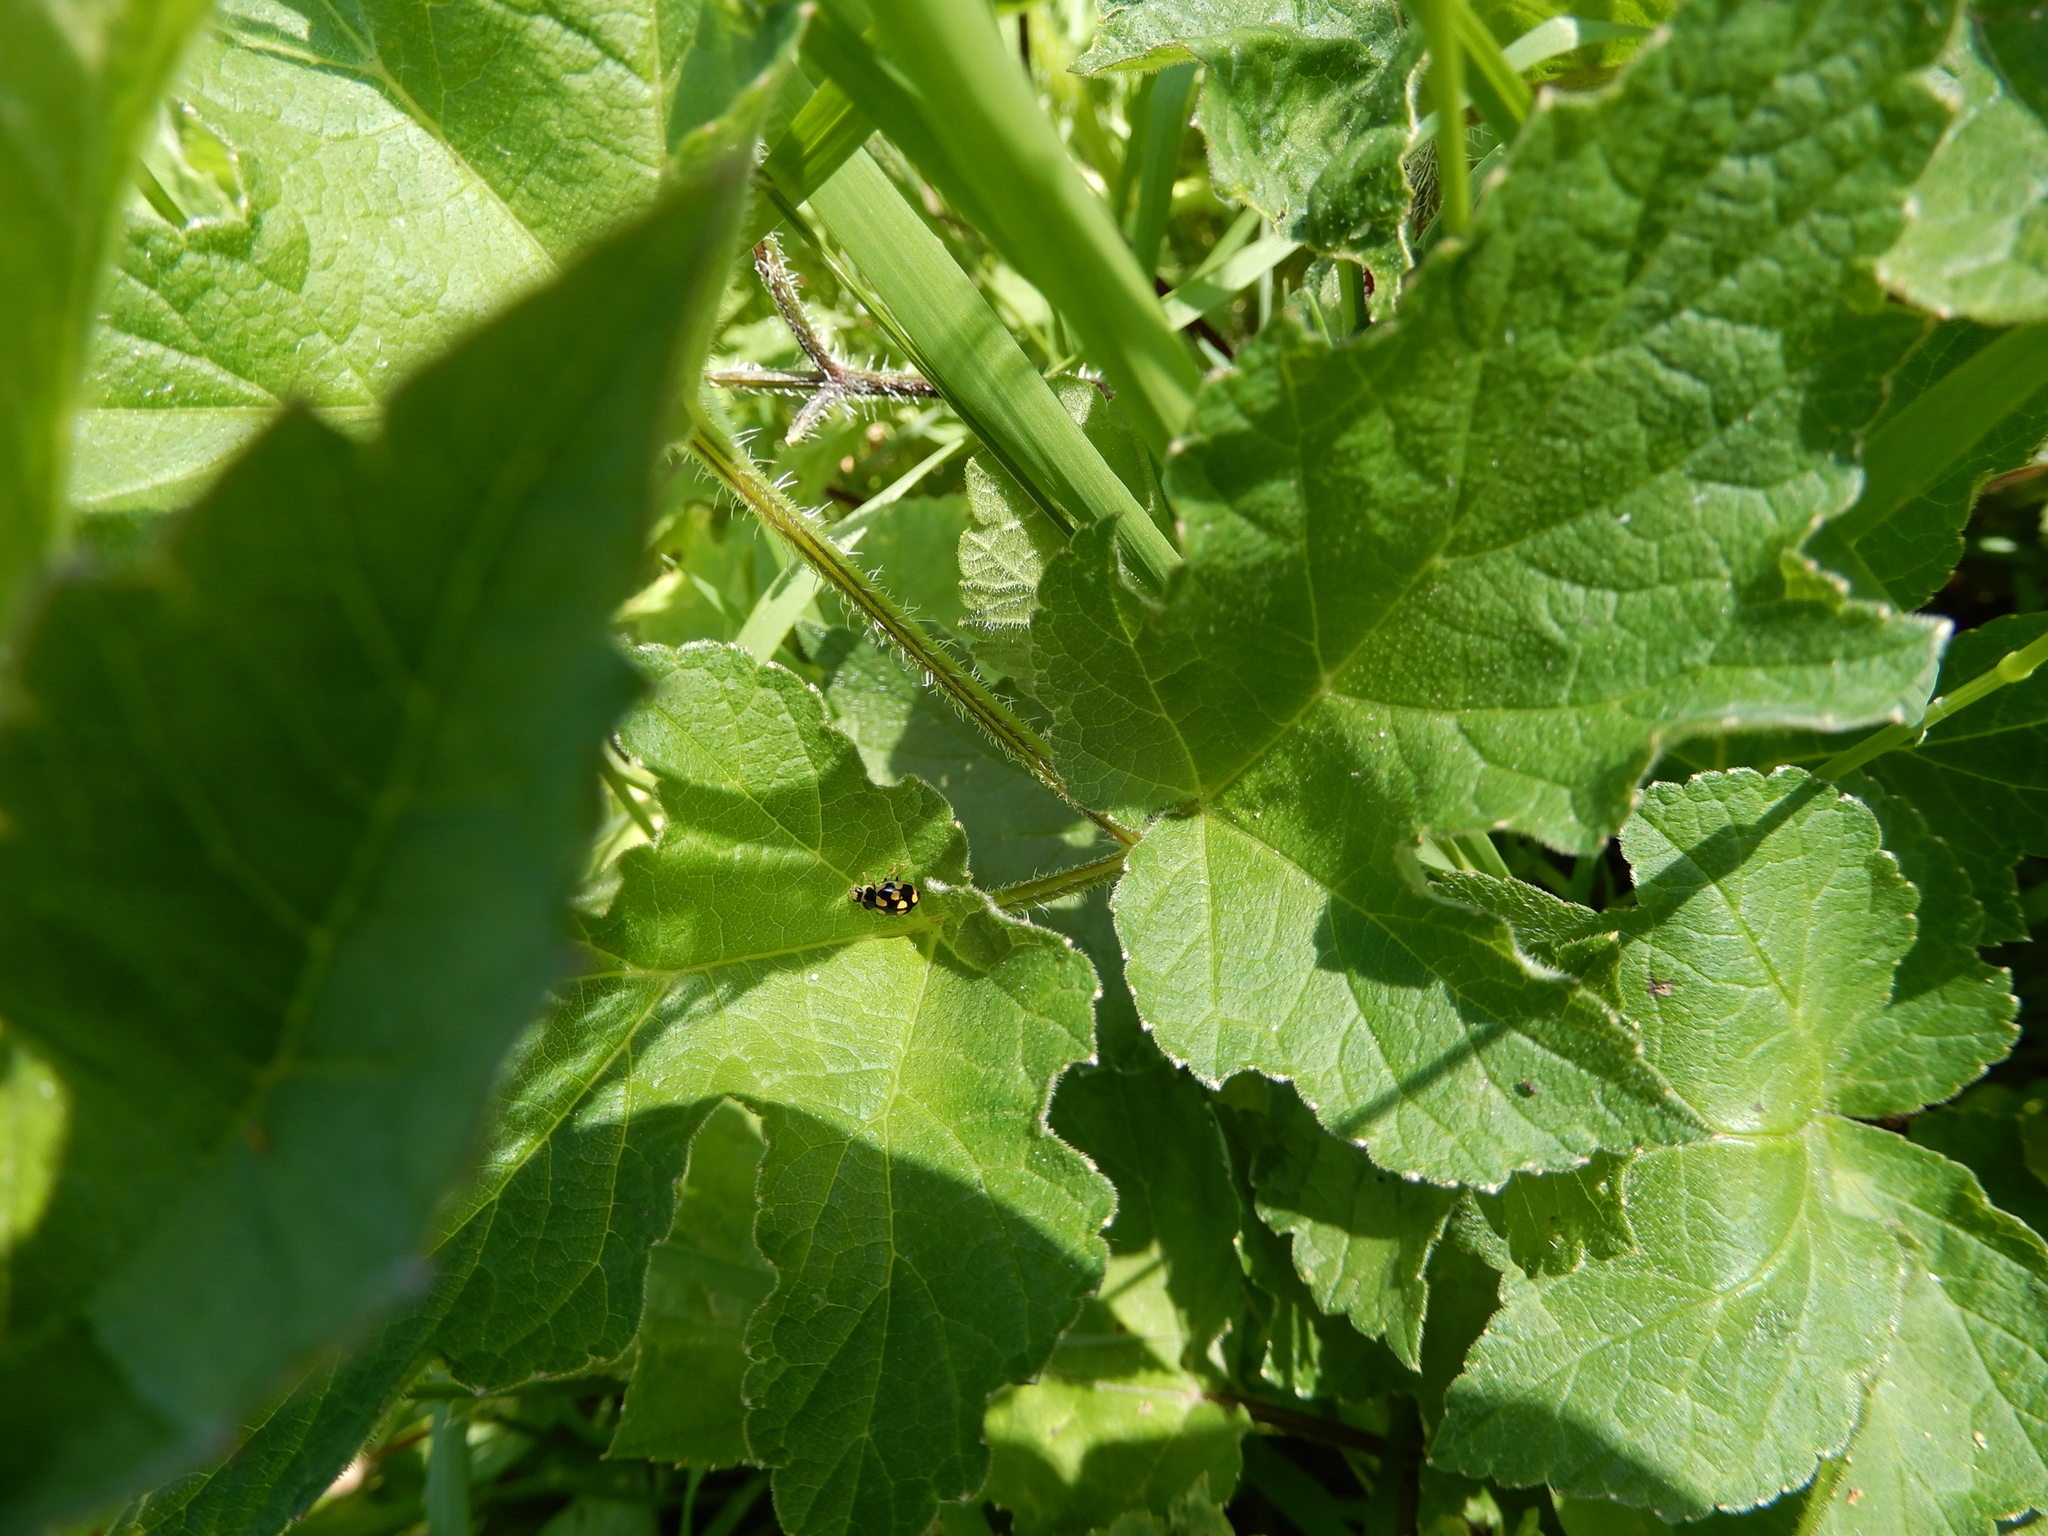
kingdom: Animalia
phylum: Arthropoda
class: Insecta
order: Coleoptera
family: Coccinellidae
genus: Propylaea
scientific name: Propylaea quatuordecimpunctata
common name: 14-spotted ladybird beetle
